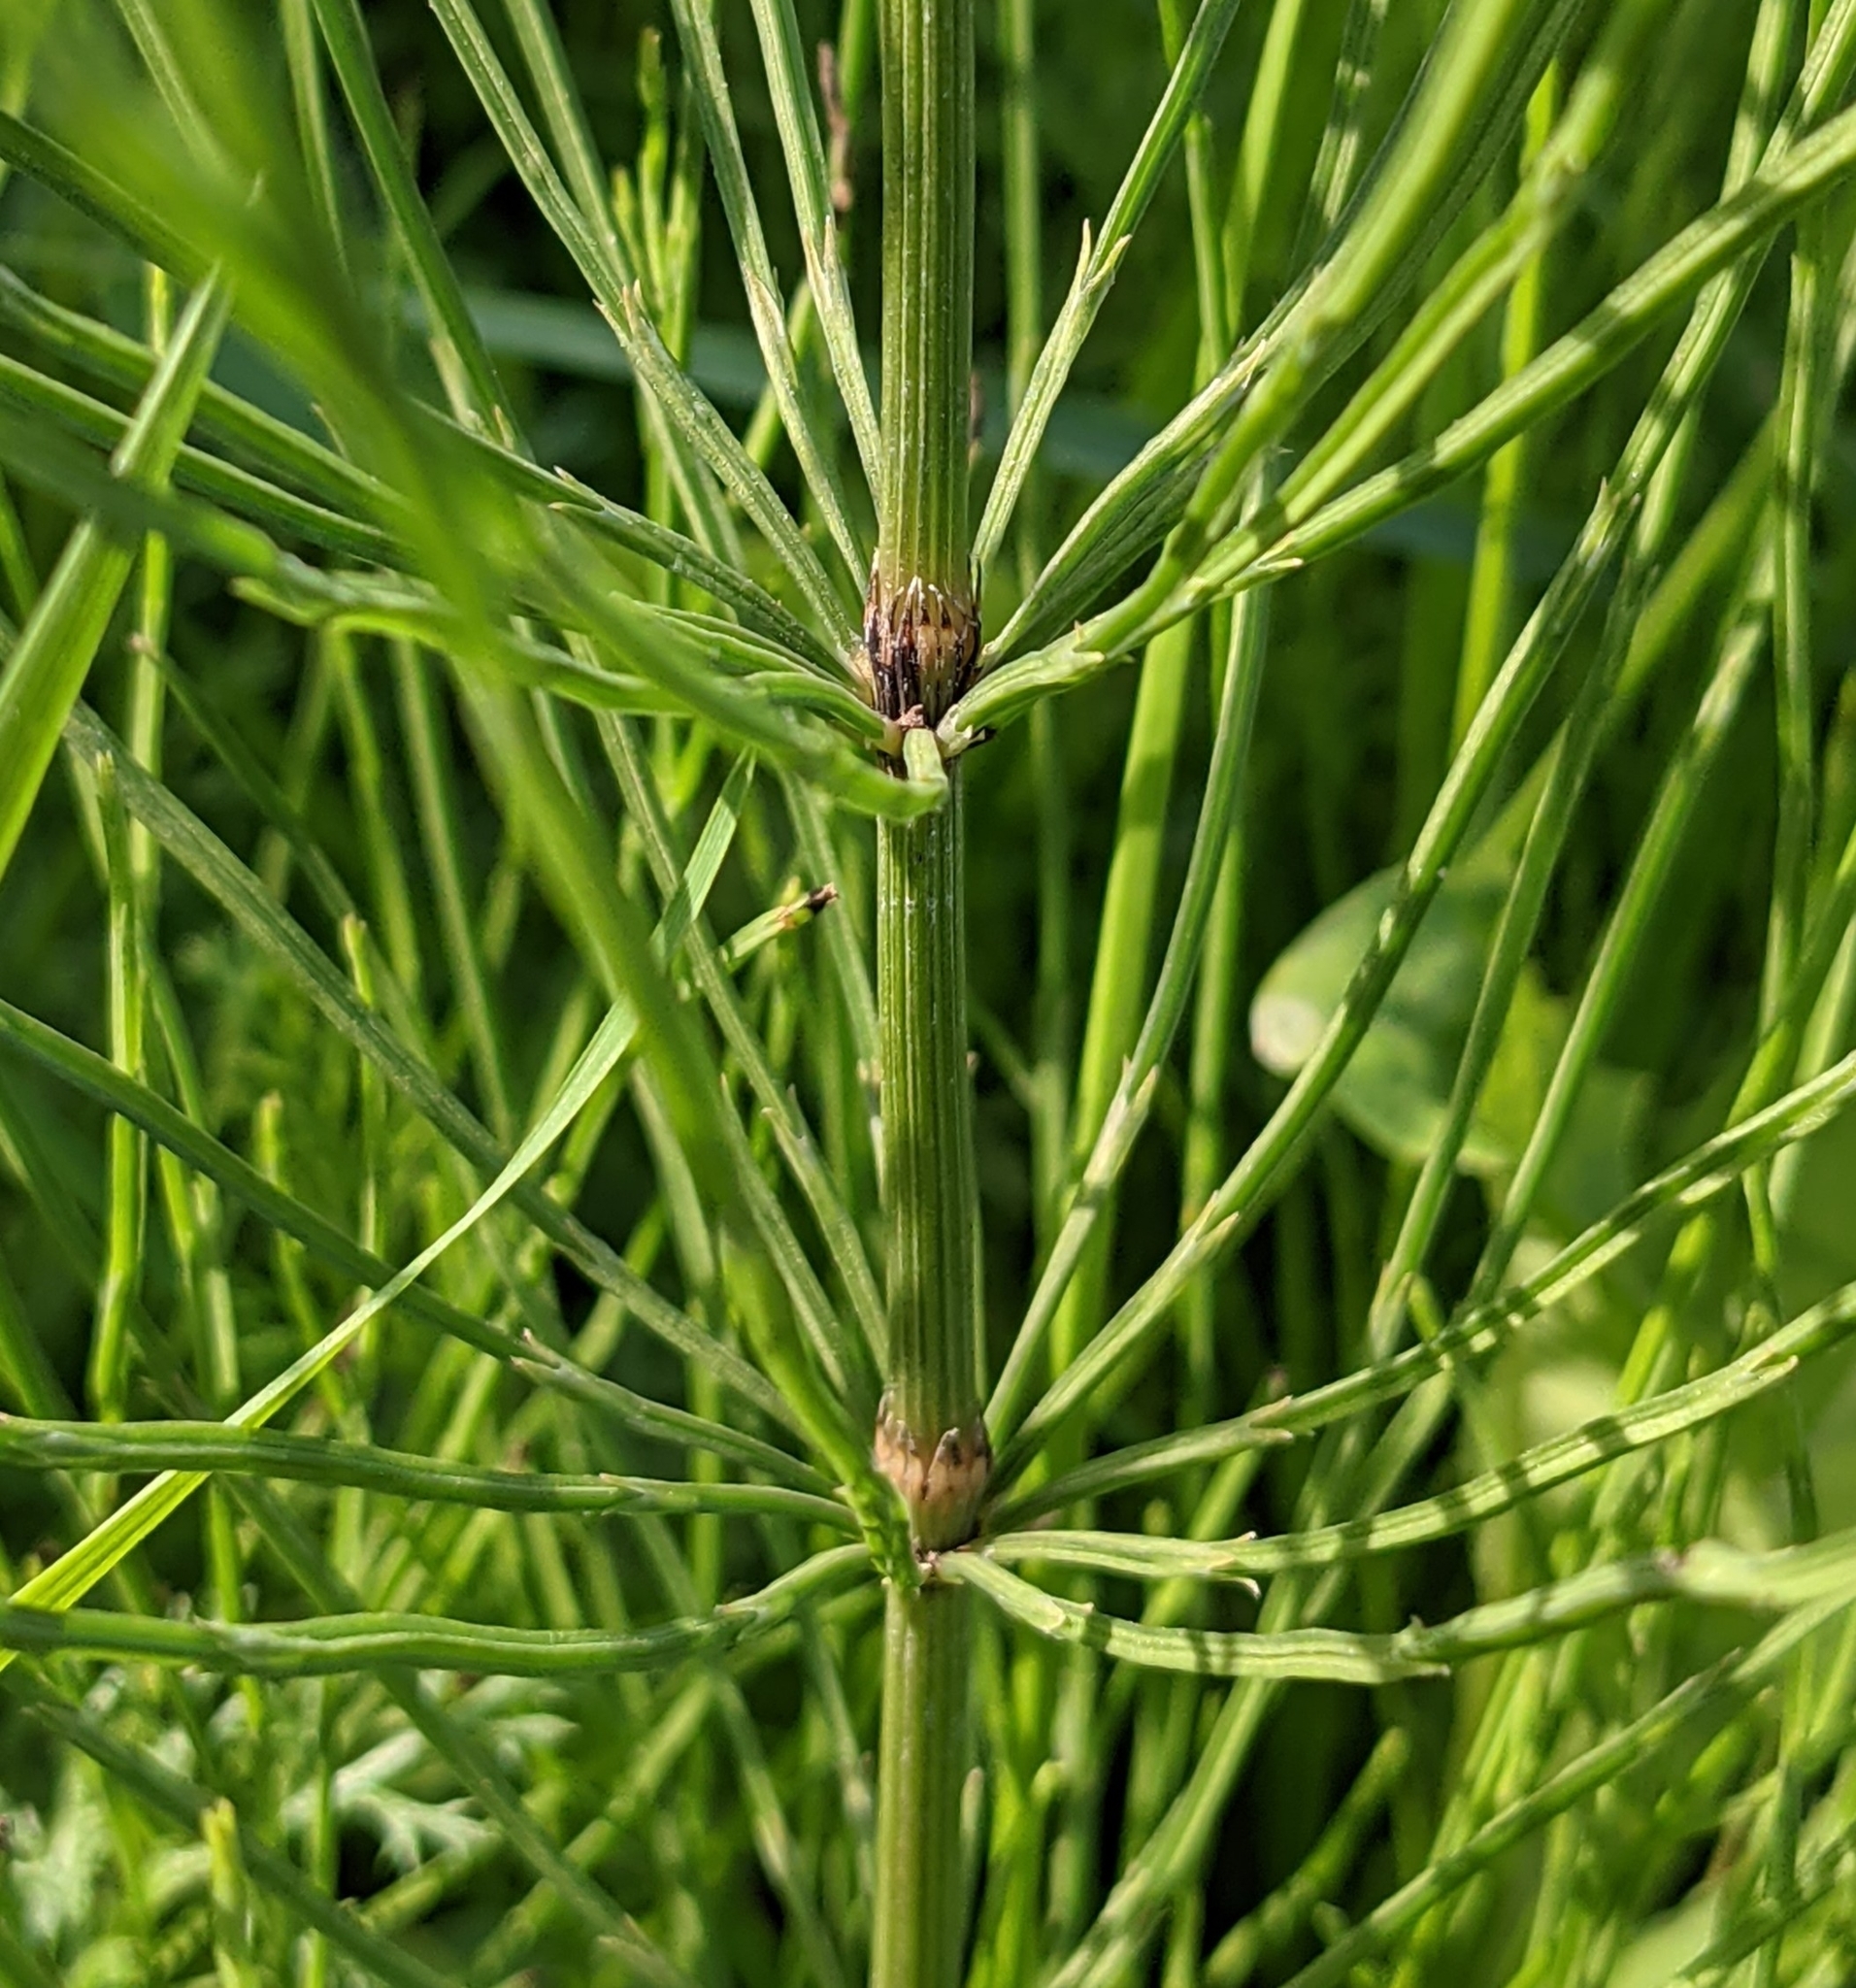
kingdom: Plantae
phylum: Tracheophyta
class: Polypodiopsida
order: Equisetales
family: Equisetaceae
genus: Equisetum
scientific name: Equisetum arvense
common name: Field horsetail
